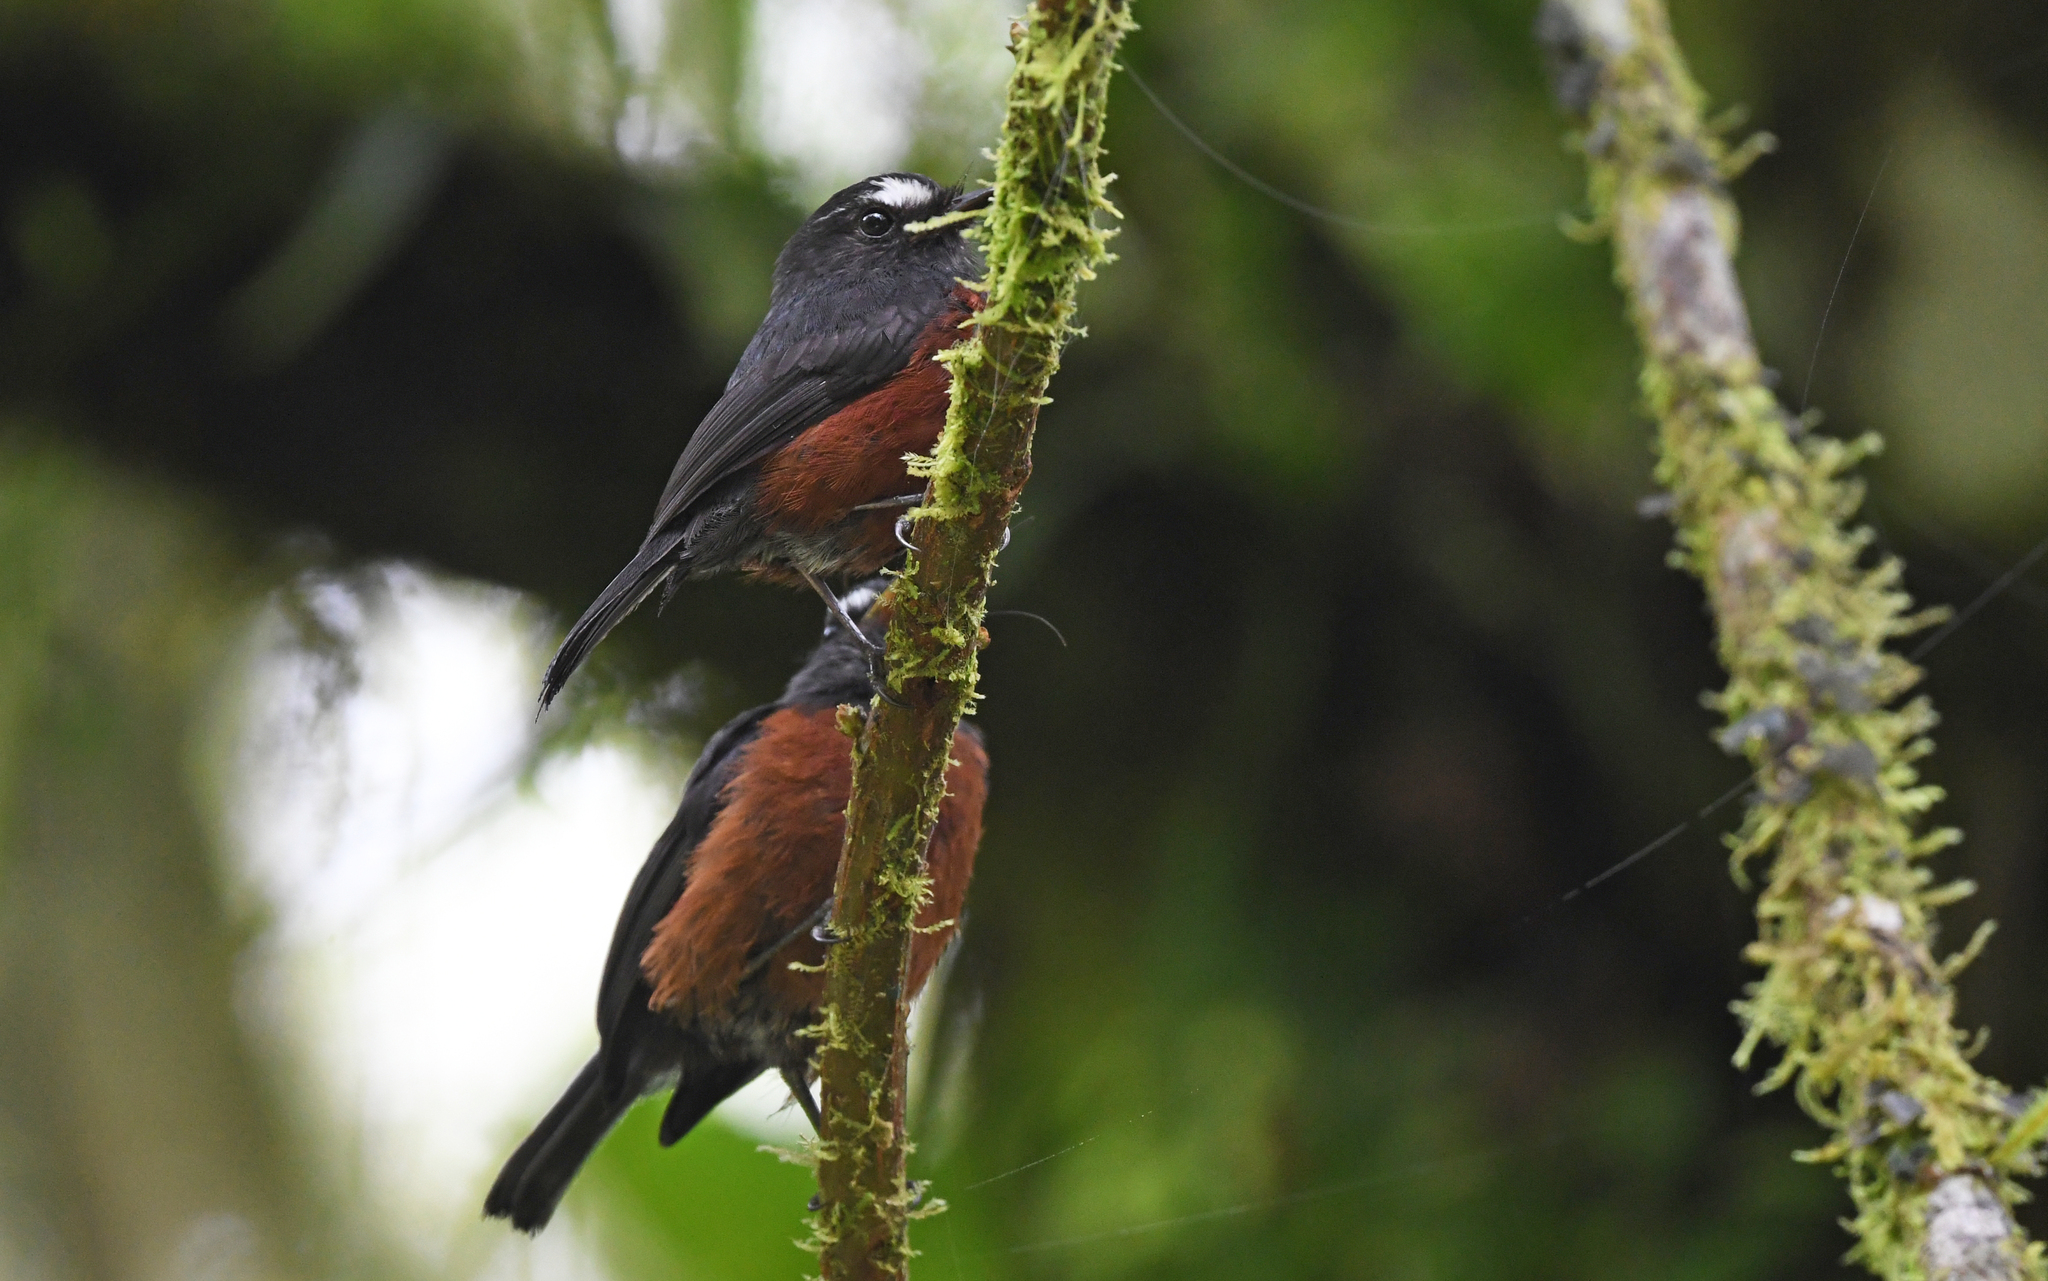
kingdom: Animalia
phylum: Chordata
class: Aves
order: Passeriformes
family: Tyrannidae
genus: Ochthoeca
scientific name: Ochthoeca cinnamomeiventris
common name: Slaty-backed chat-tyrant
